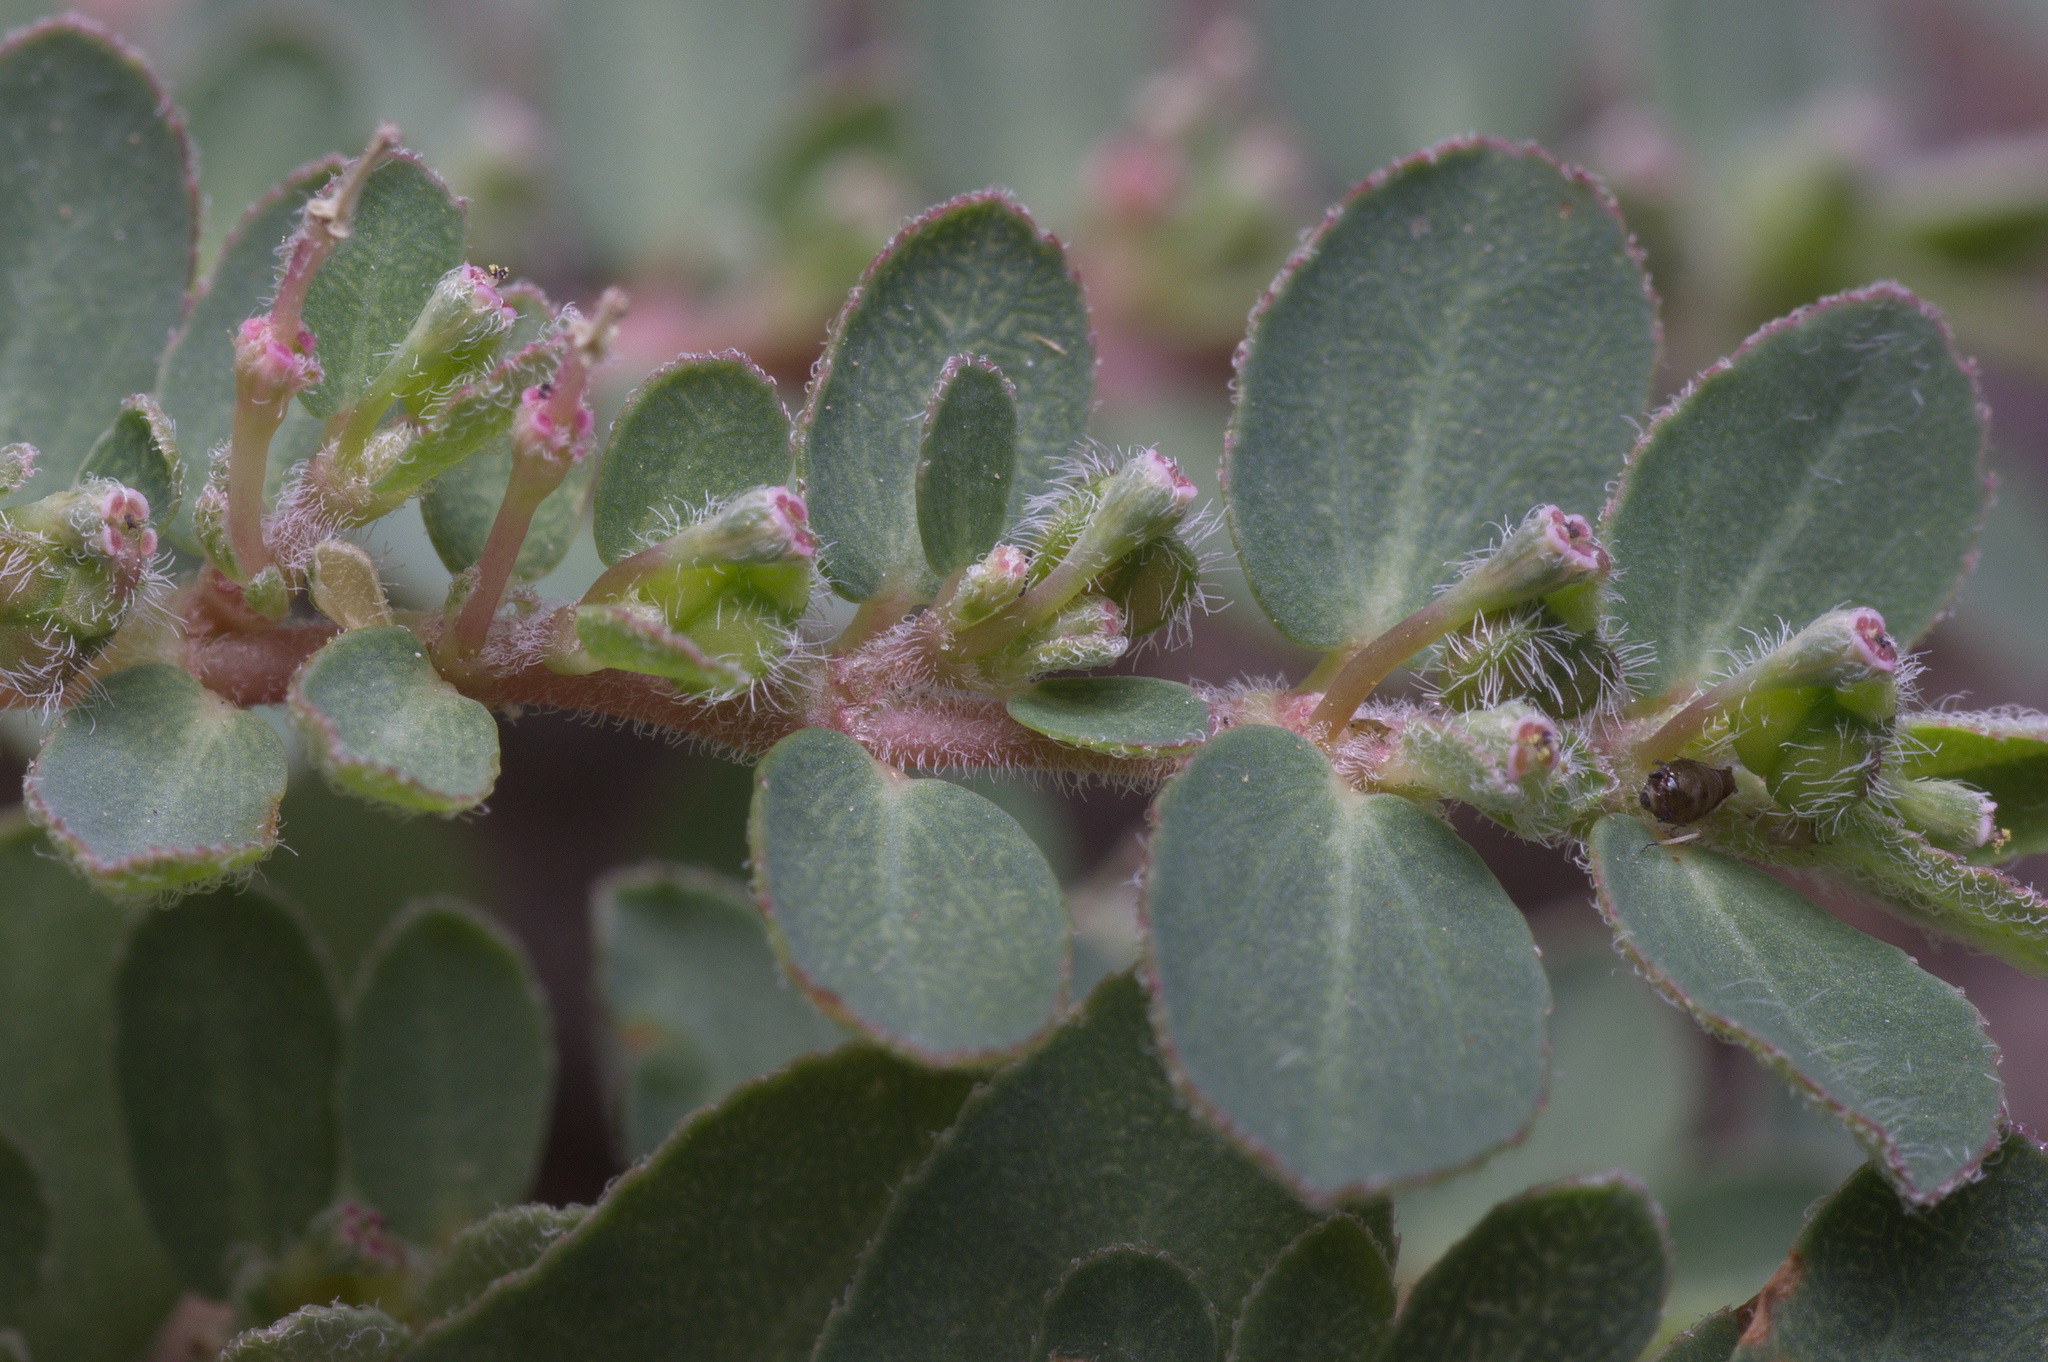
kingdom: Plantae
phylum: Tracheophyta
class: Magnoliopsida
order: Malpighiales
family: Euphorbiaceae
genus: Euphorbia
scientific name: Euphorbia prostrata
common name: Prostrate sandmat
